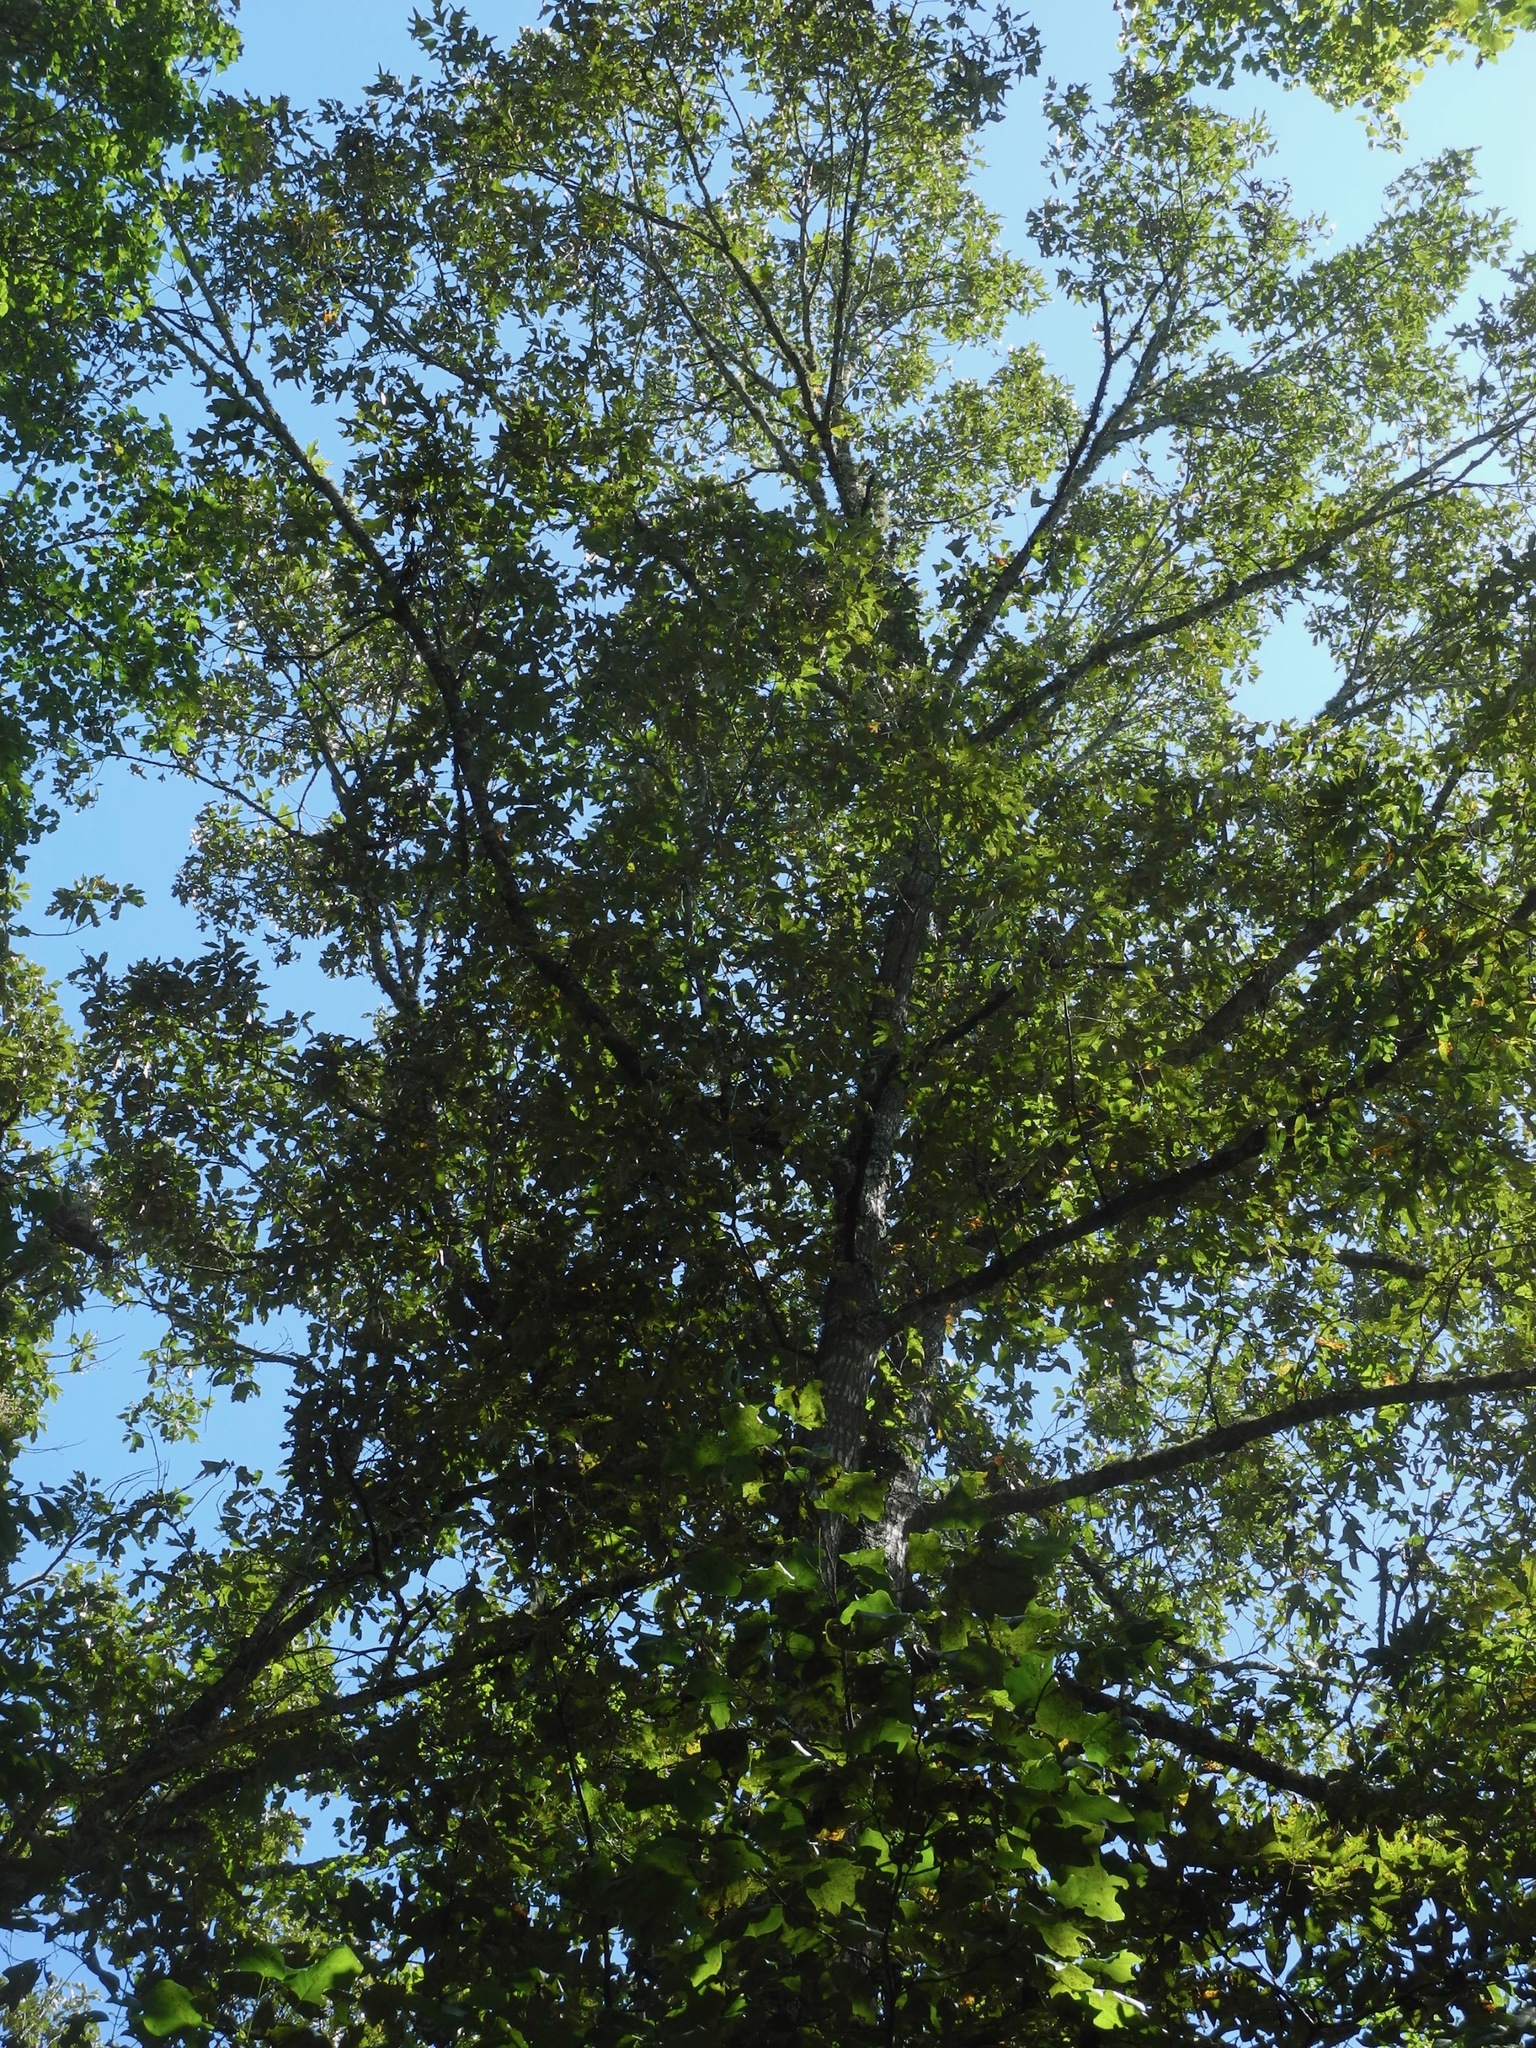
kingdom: Plantae
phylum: Tracheophyta
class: Magnoliopsida
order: Fagales
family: Fagaceae
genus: Quercus
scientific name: Quercus falcata
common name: Southern red oak
